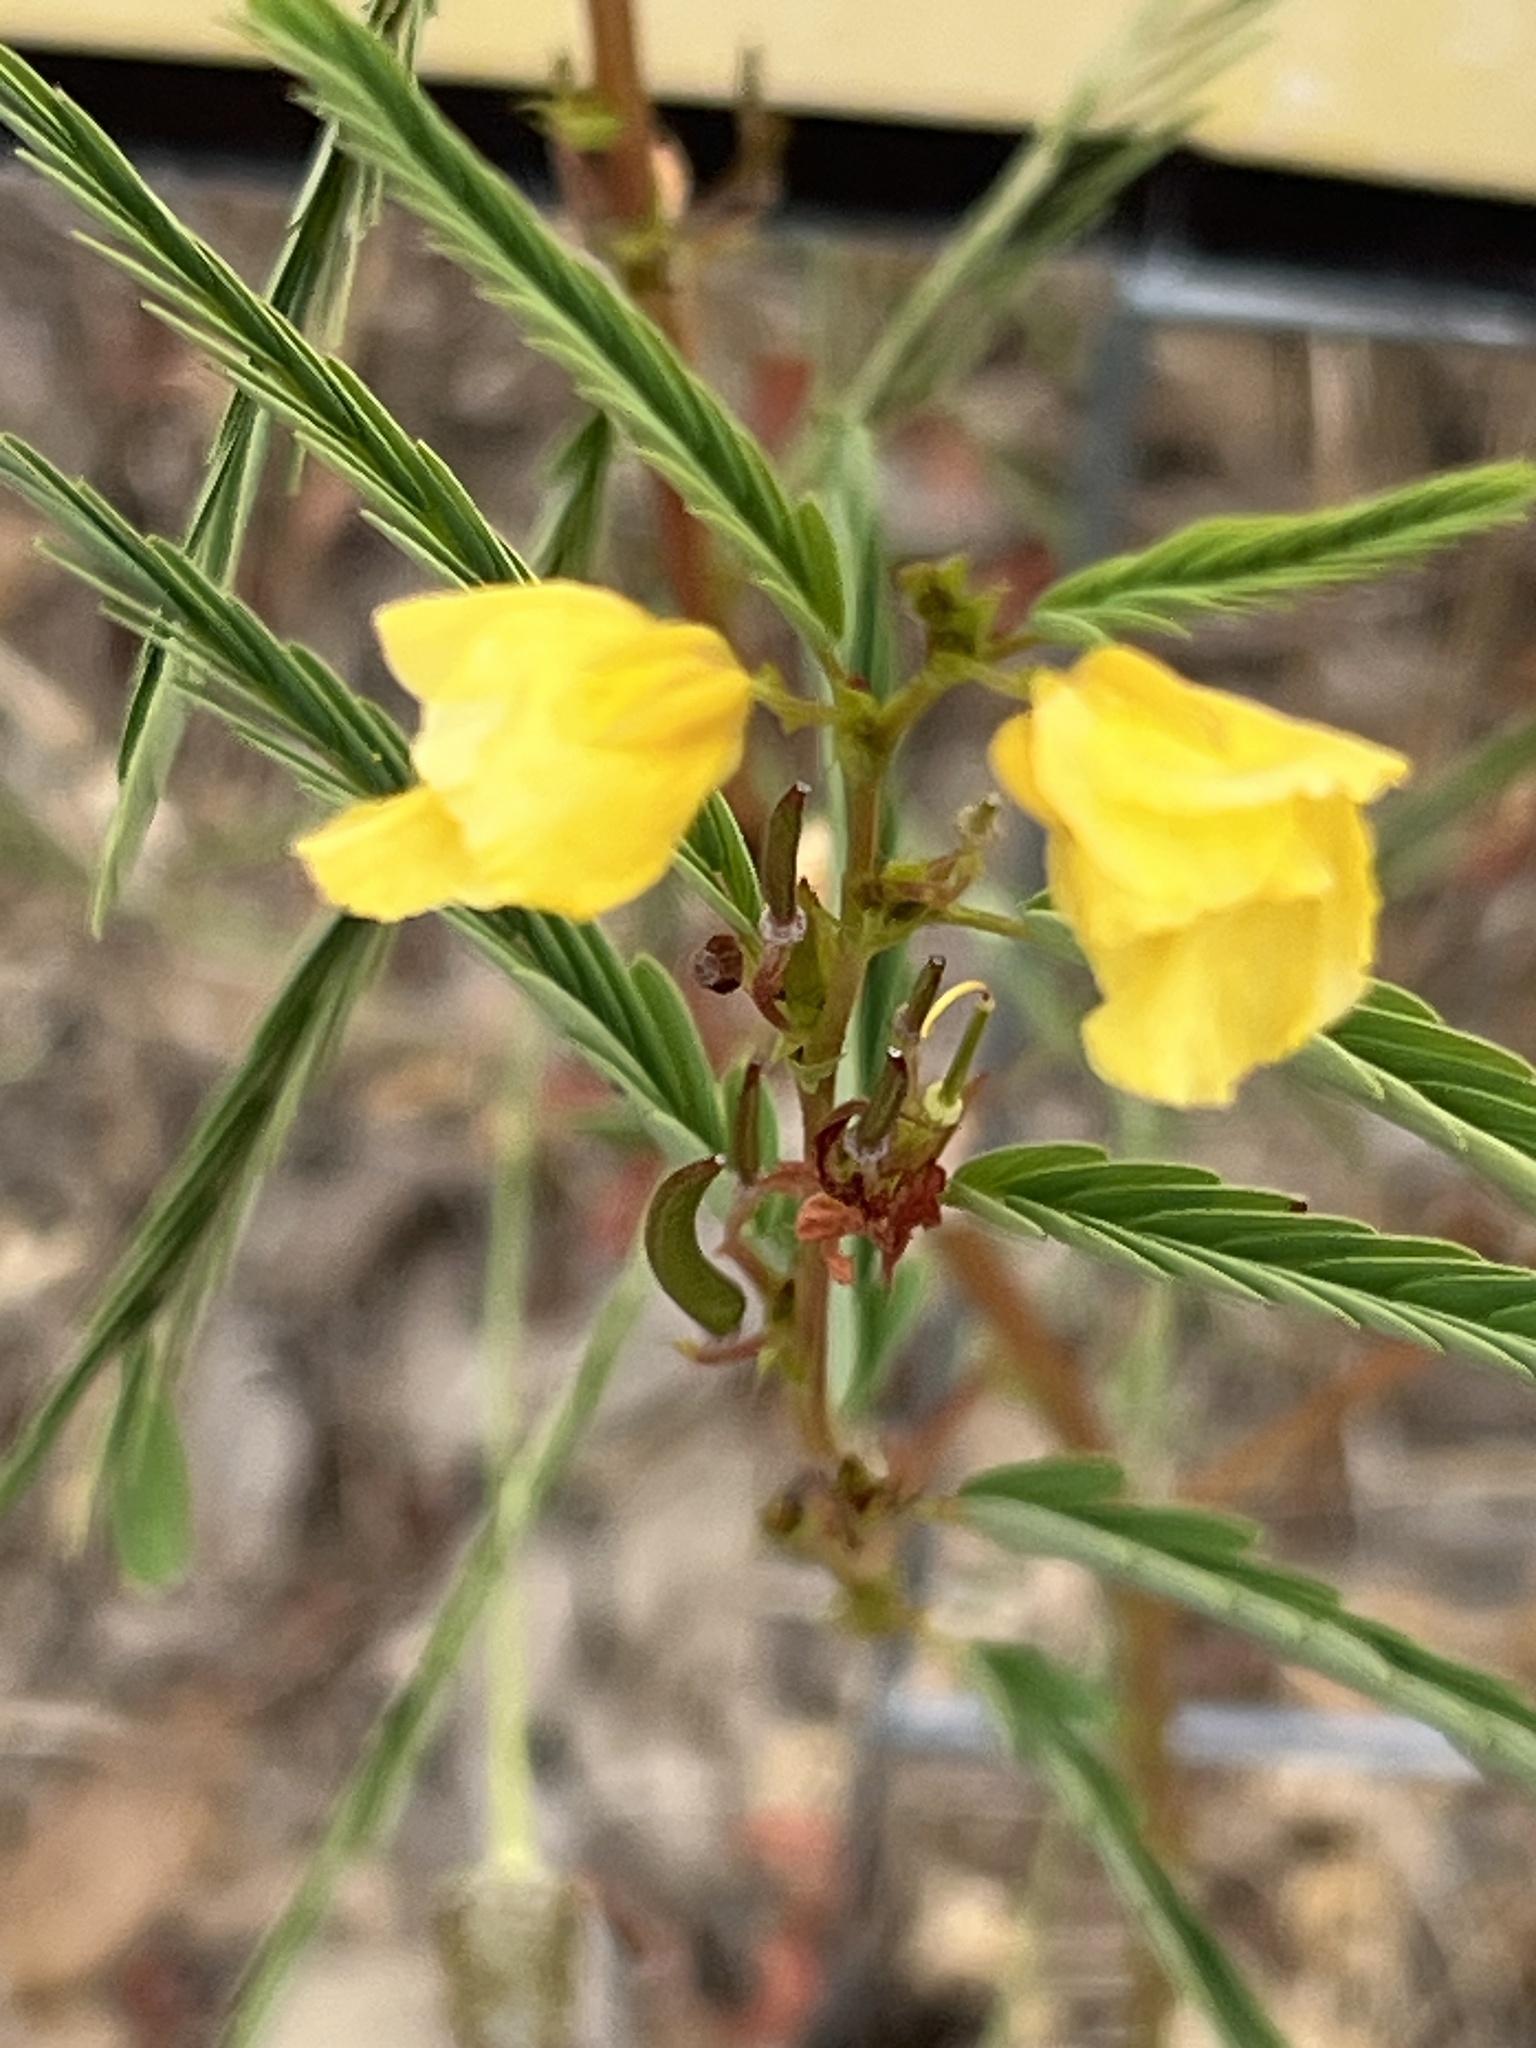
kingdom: Plantae
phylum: Tracheophyta
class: Magnoliopsida
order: Fabales
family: Fabaceae
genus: Chamaecrista
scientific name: Chamaecrista fasciculata
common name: Golden cassia
